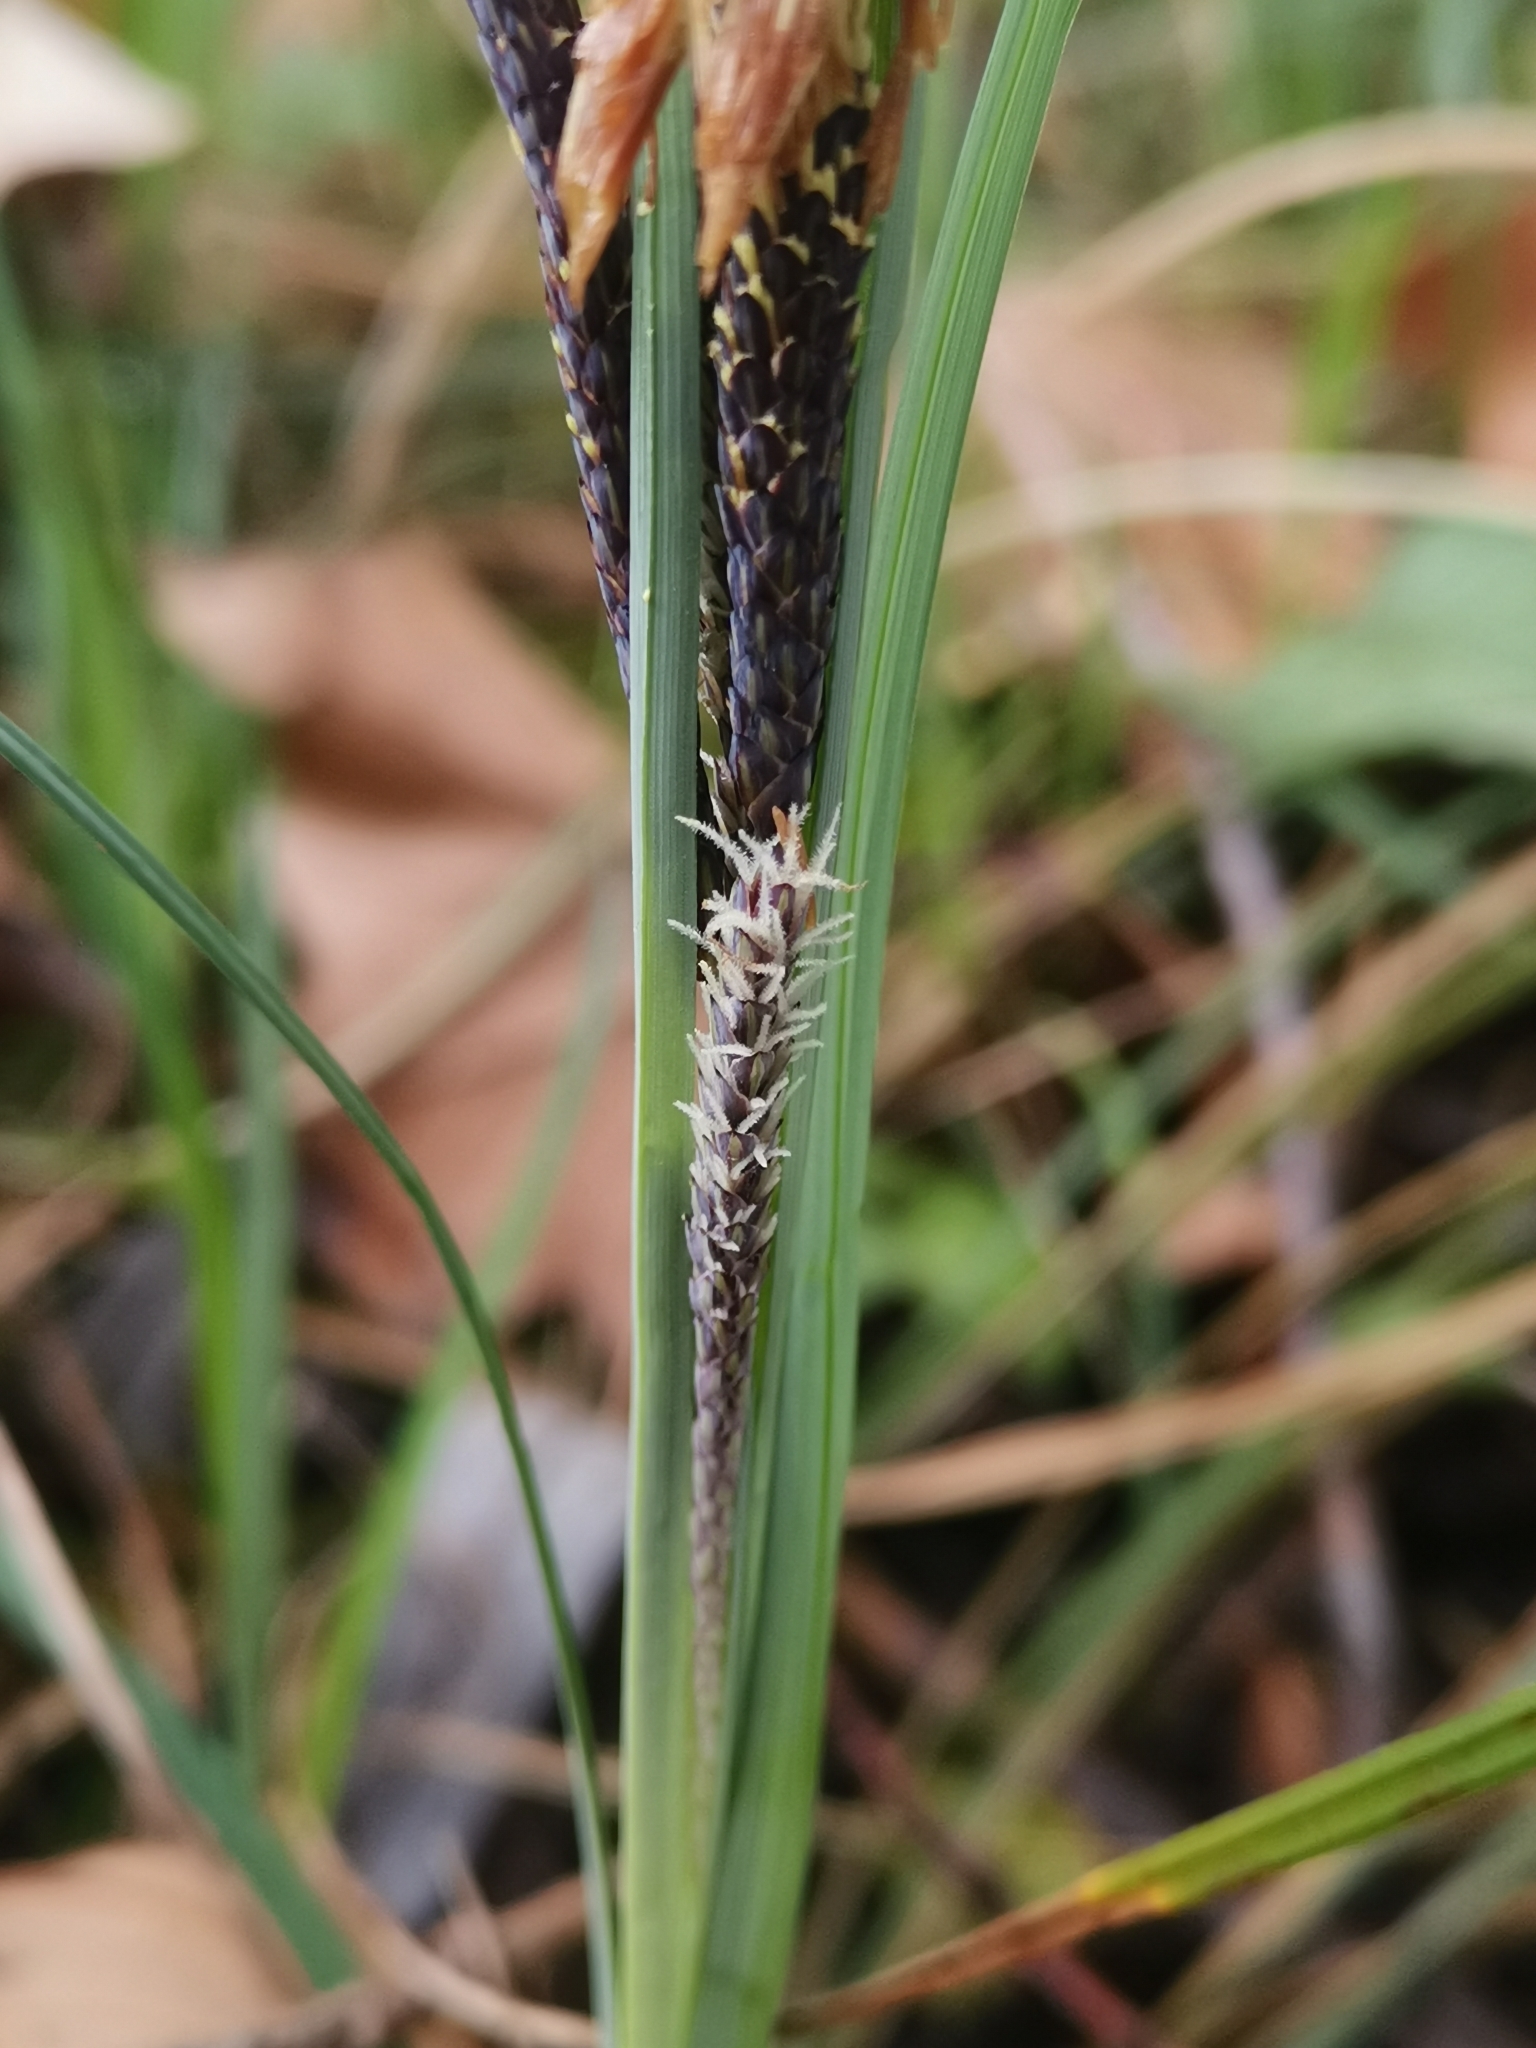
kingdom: Plantae
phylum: Tracheophyta
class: Liliopsida
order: Poales
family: Cyperaceae
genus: Carex
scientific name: Carex flacca
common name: Glaucous sedge
